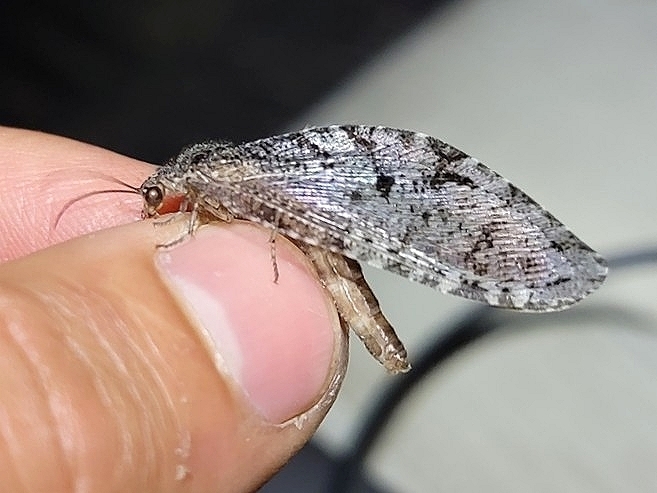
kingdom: Animalia
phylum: Arthropoda
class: Insecta
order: Neuroptera
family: Ithonidae
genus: Polystoechotes
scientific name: Polystoechotes punctata
